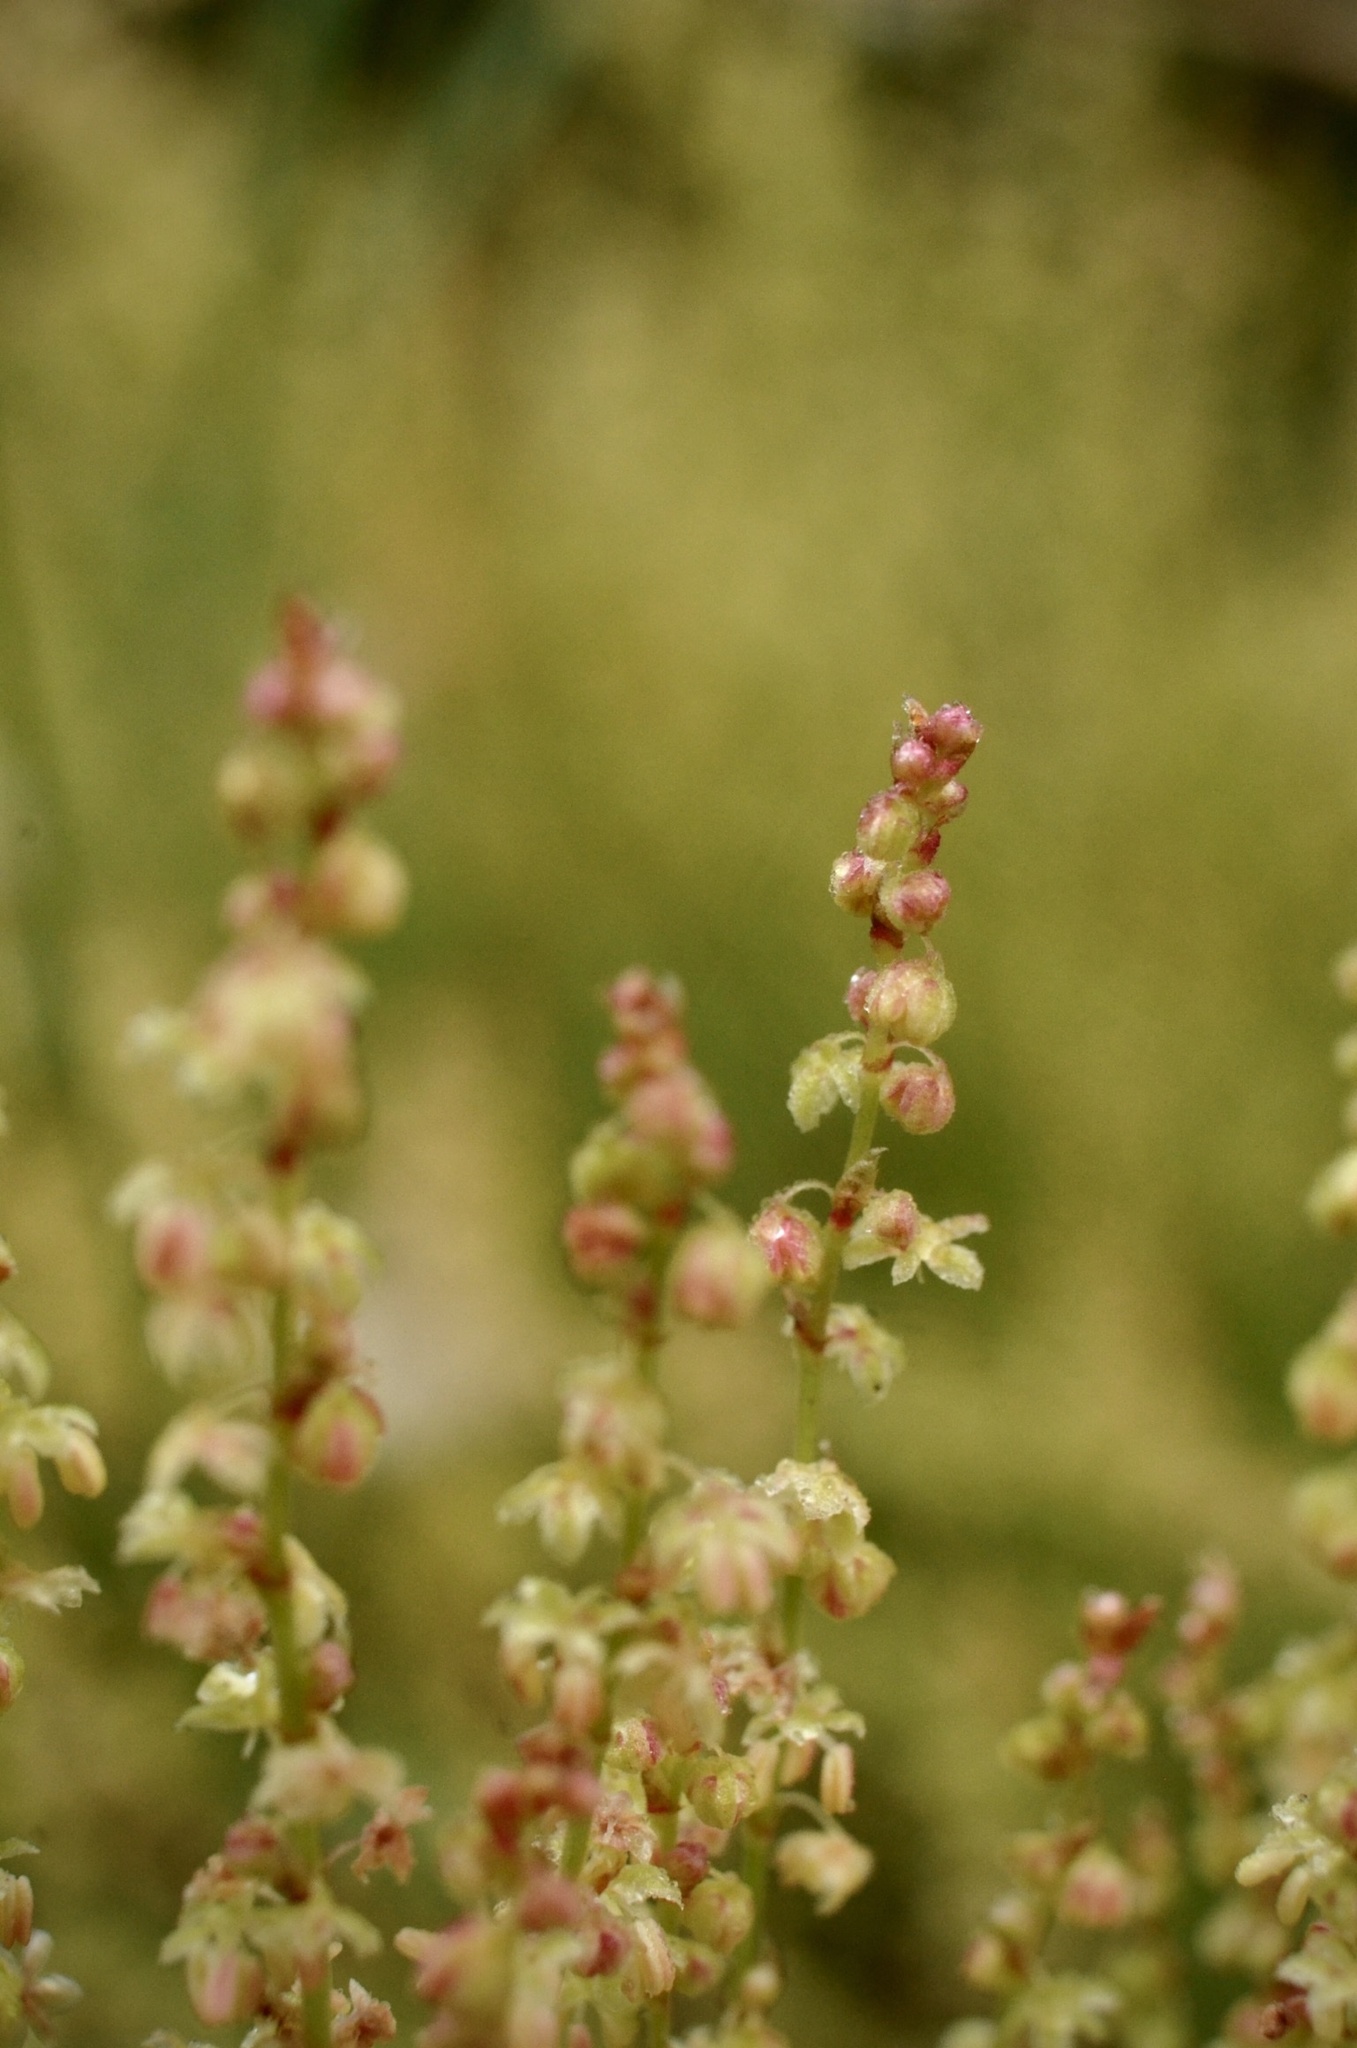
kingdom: Plantae
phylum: Tracheophyta
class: Magnoliopsida
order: Caryophyllales
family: Polygonaceae
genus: Rumex
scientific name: Rumex acetosella
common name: Common sheep sorrel
